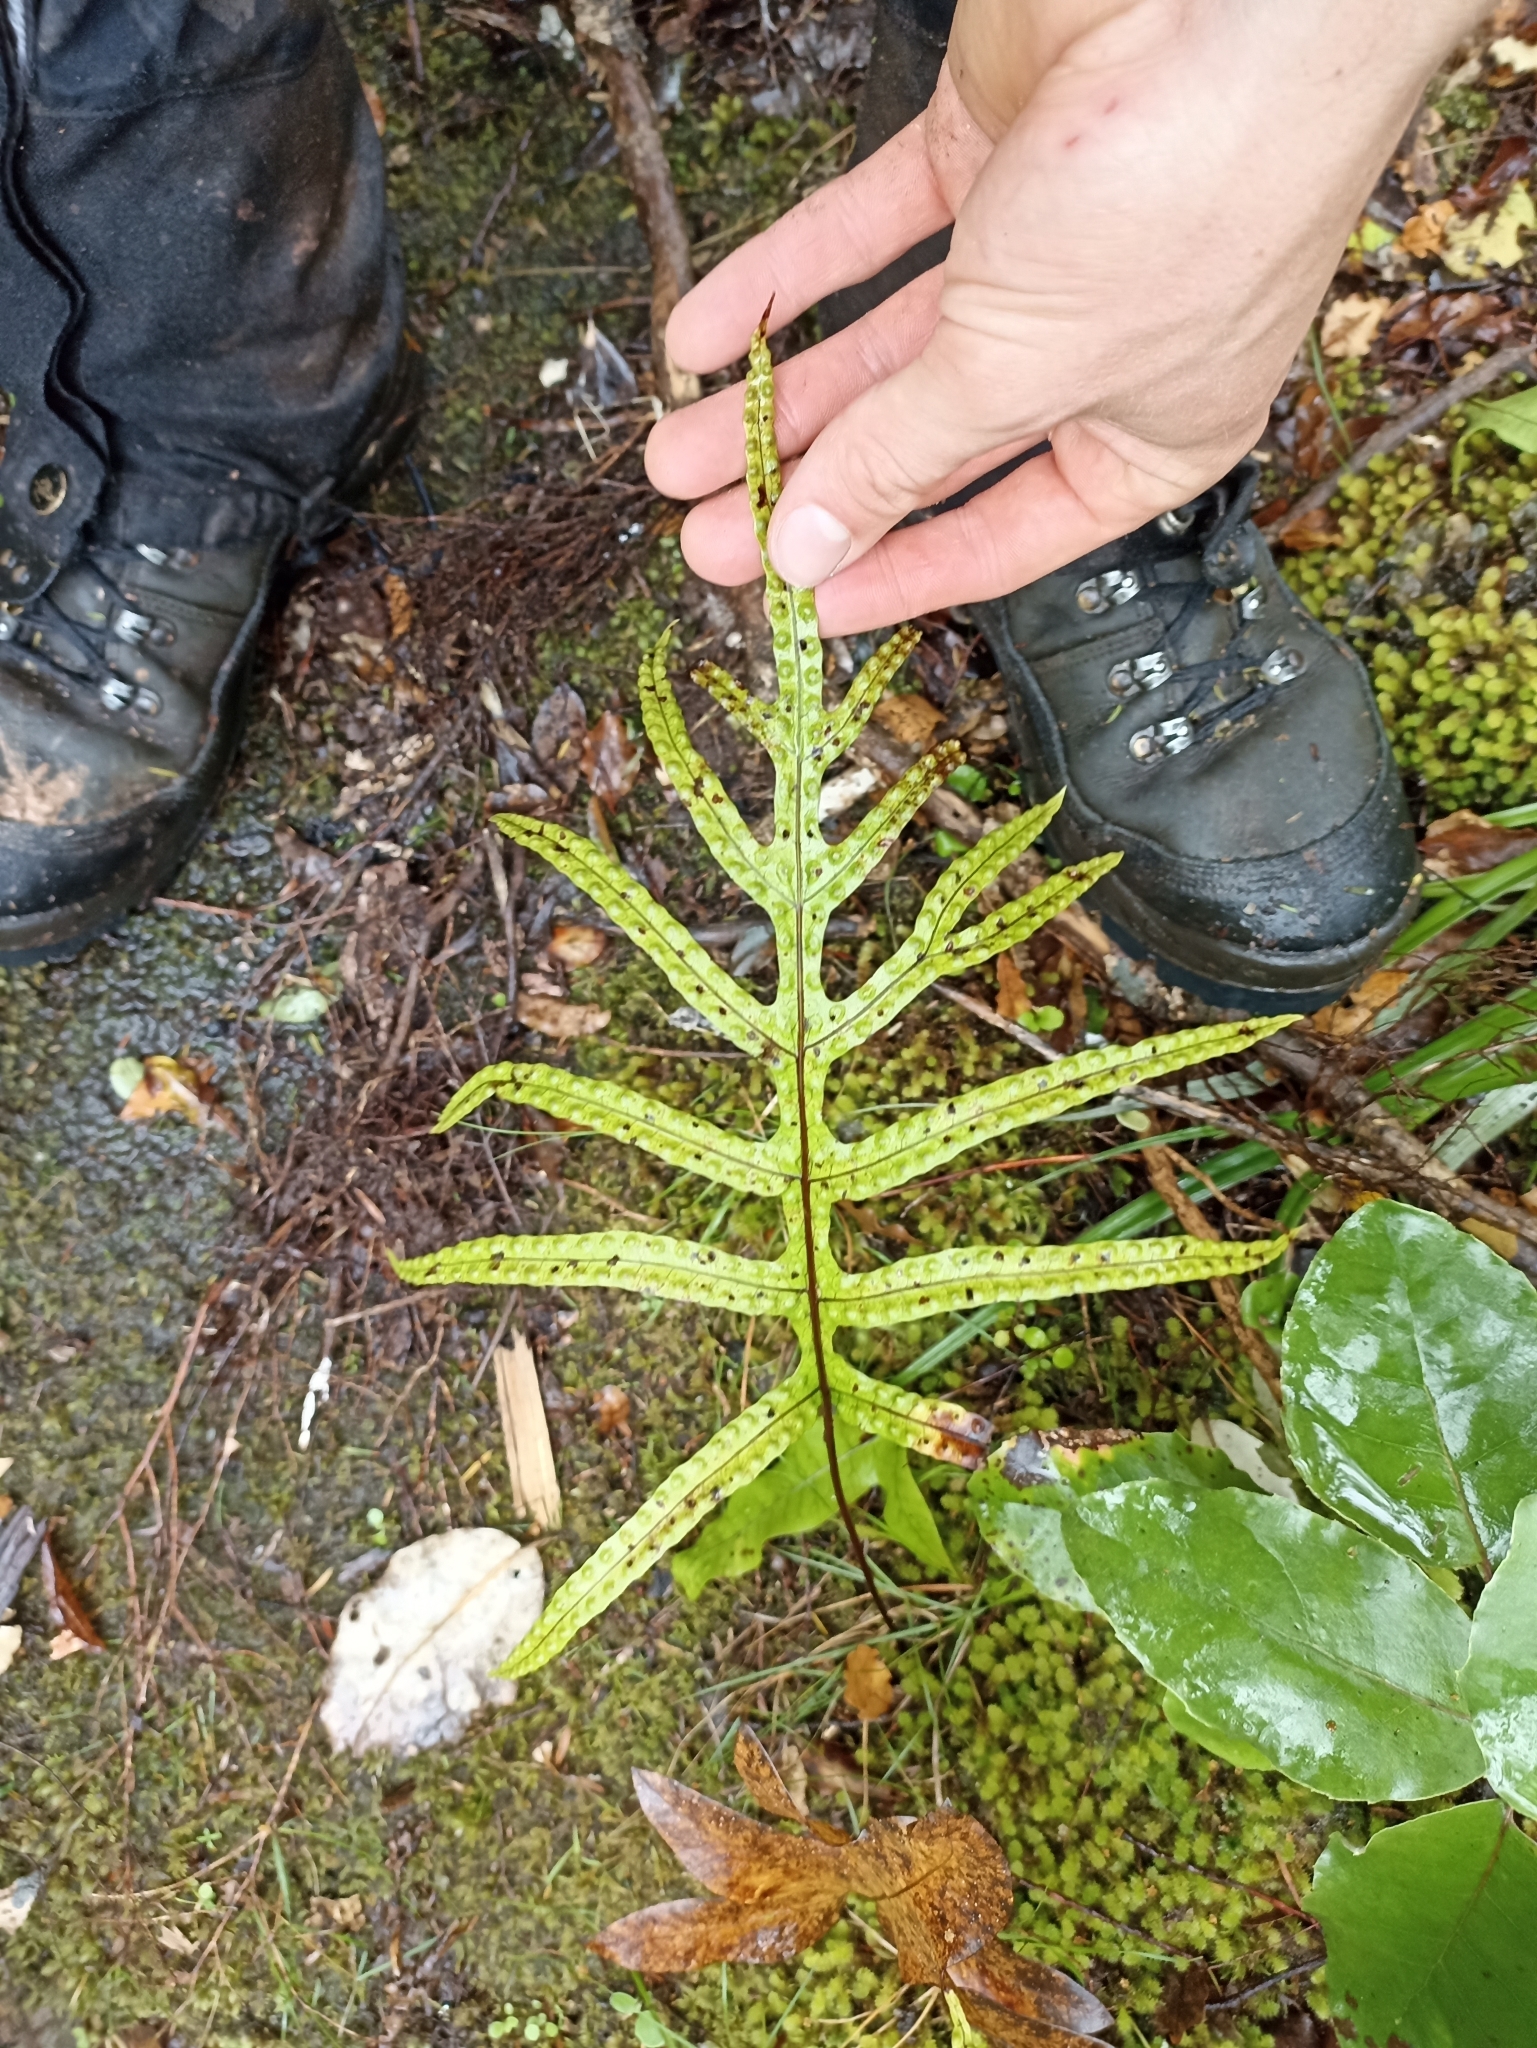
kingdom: Plantae
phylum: Tracheophyta
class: Polypodiopsida
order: Polypodiales
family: Polypodiaceae
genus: Lecanopteris
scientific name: Lecanopteris pustulata
